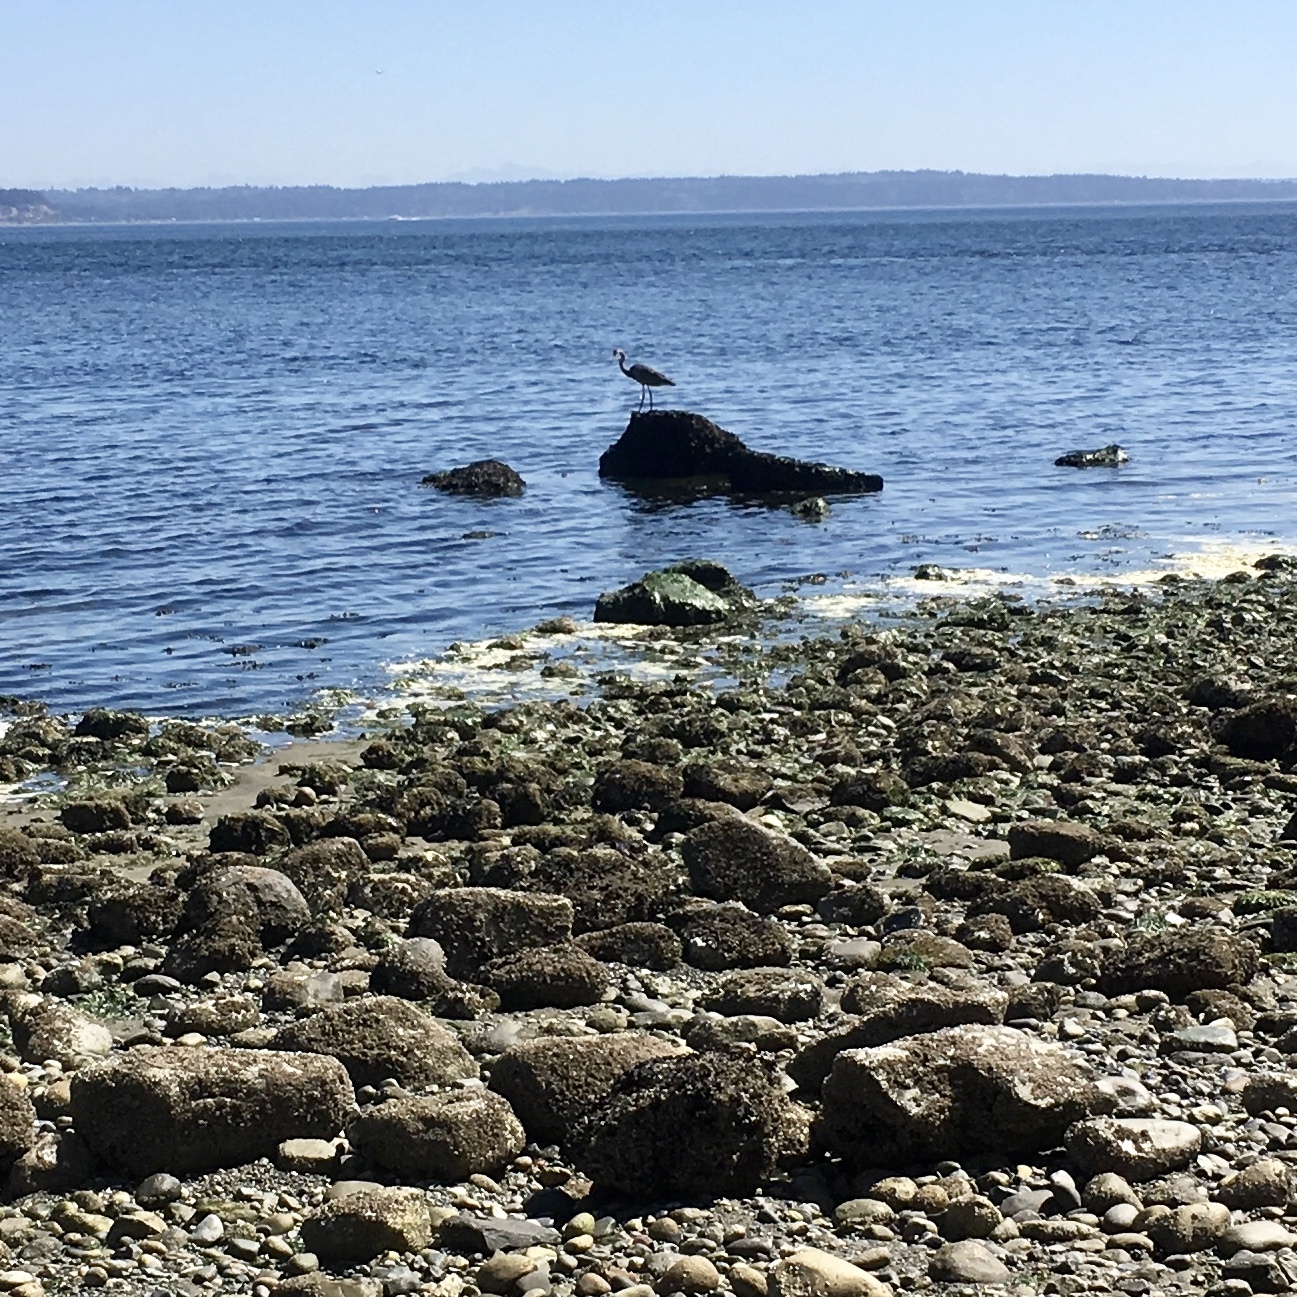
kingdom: Animalia
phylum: Chordata
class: Aves
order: Pelecaniformes
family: Ardeidae
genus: Ardea
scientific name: Ardea herodias
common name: Great blue heron
